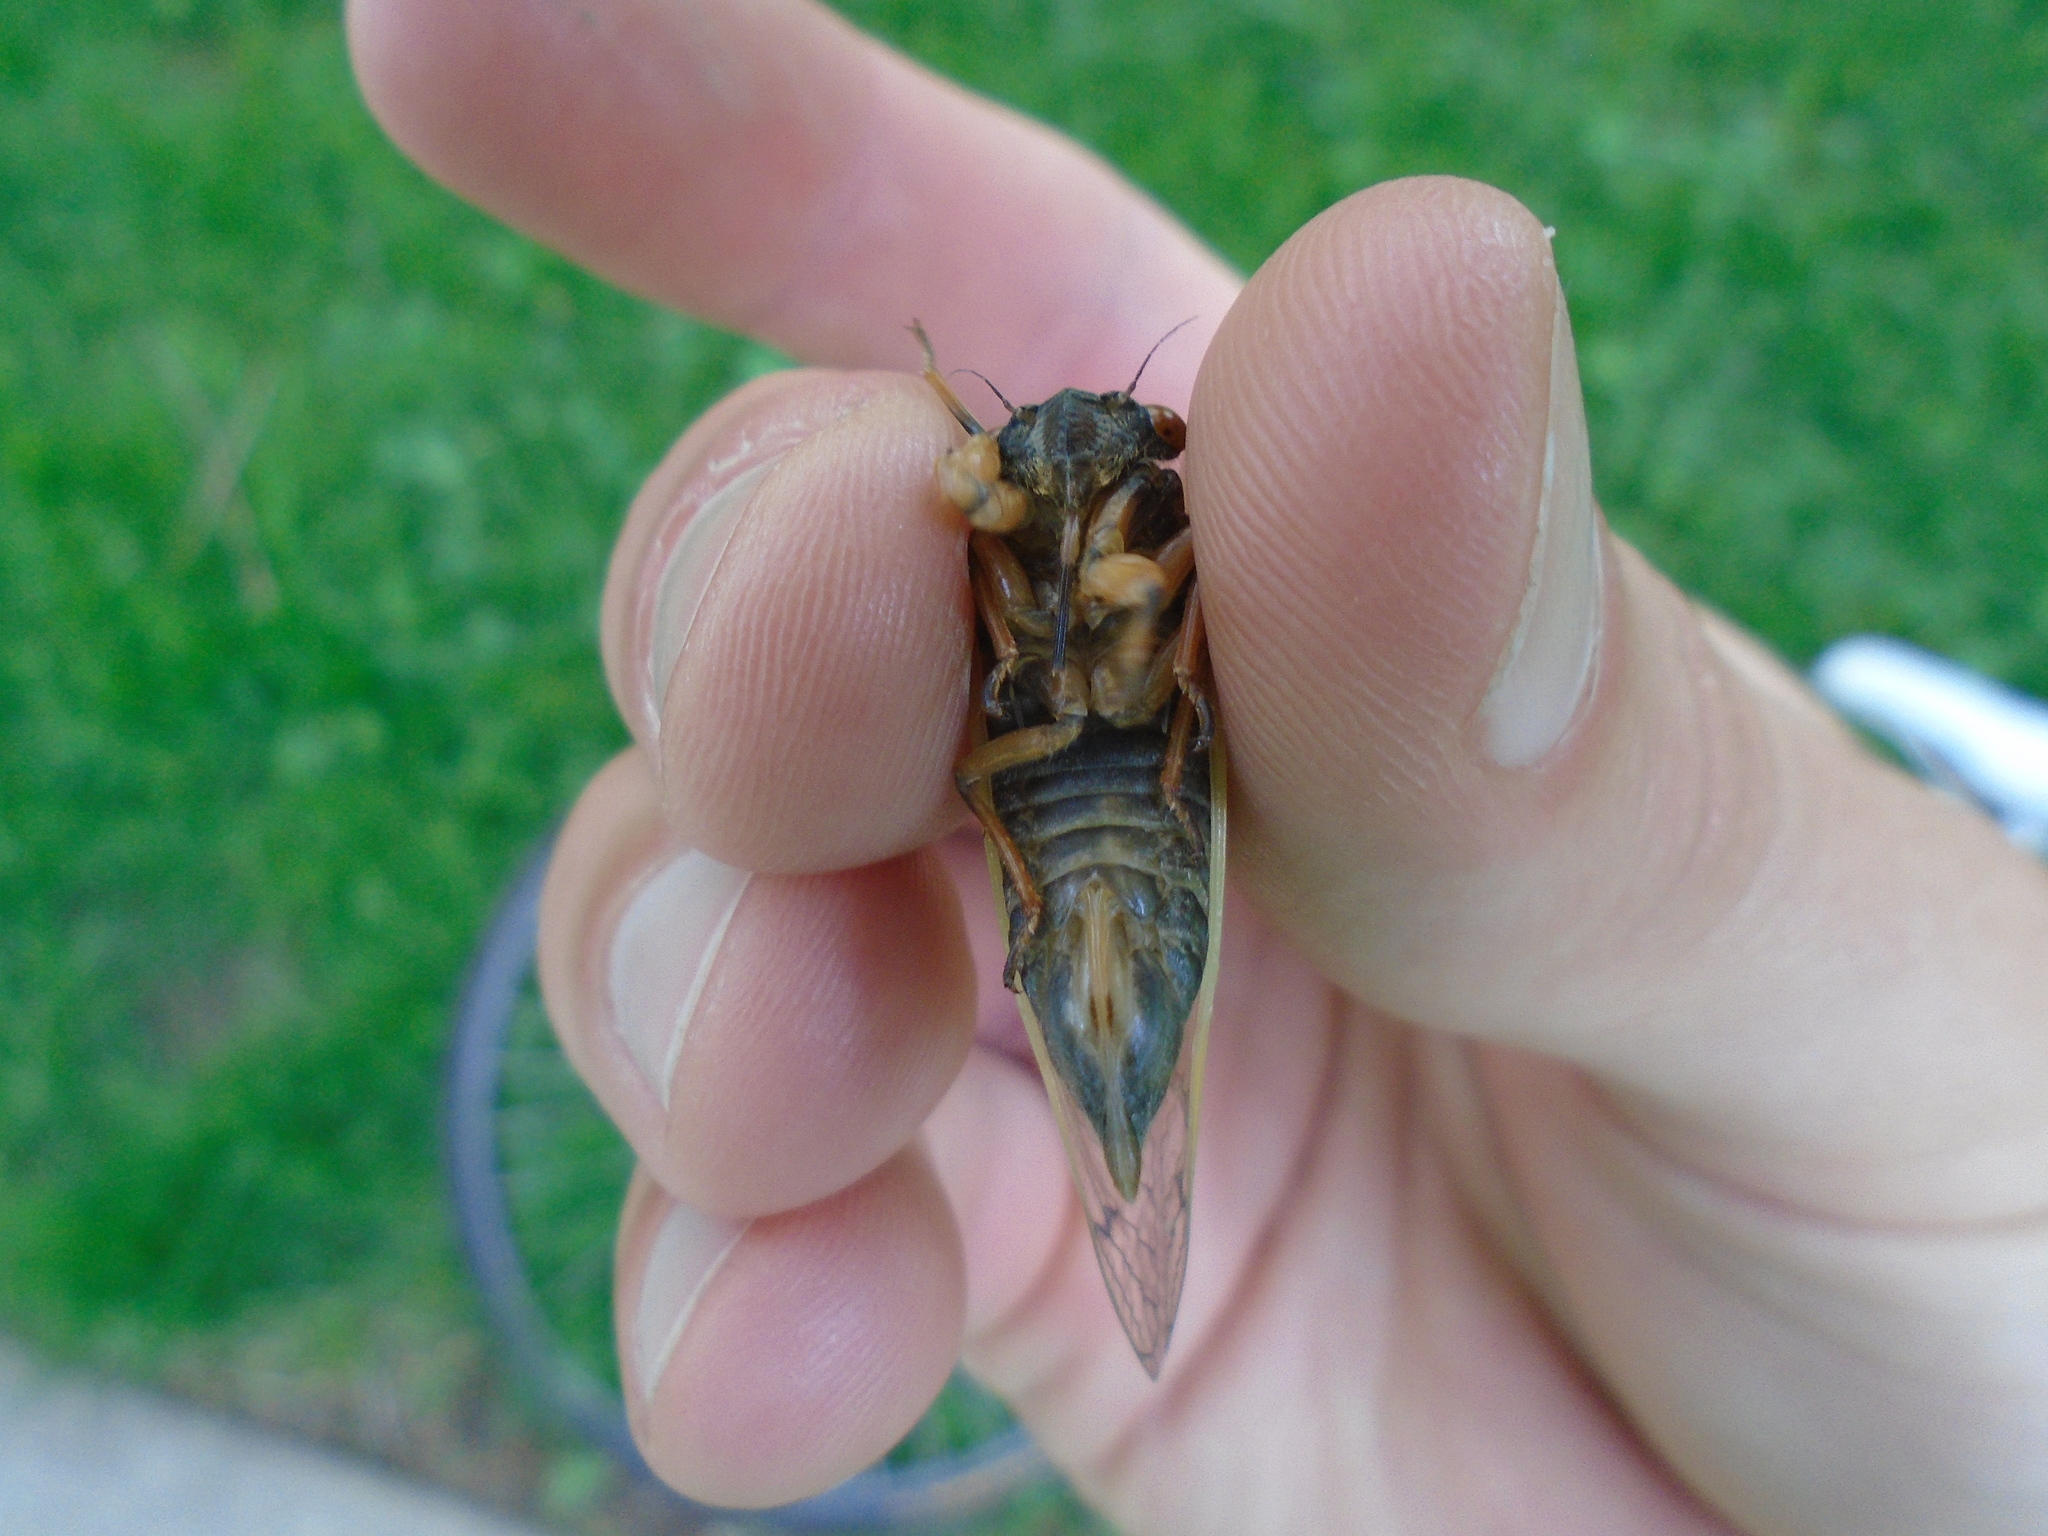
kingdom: Animalia
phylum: Arthropoda
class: Insecta
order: Hemiptera
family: Cicadidae
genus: Magicicada
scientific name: Magicicada cassini
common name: Cassin's 17-year cicada
